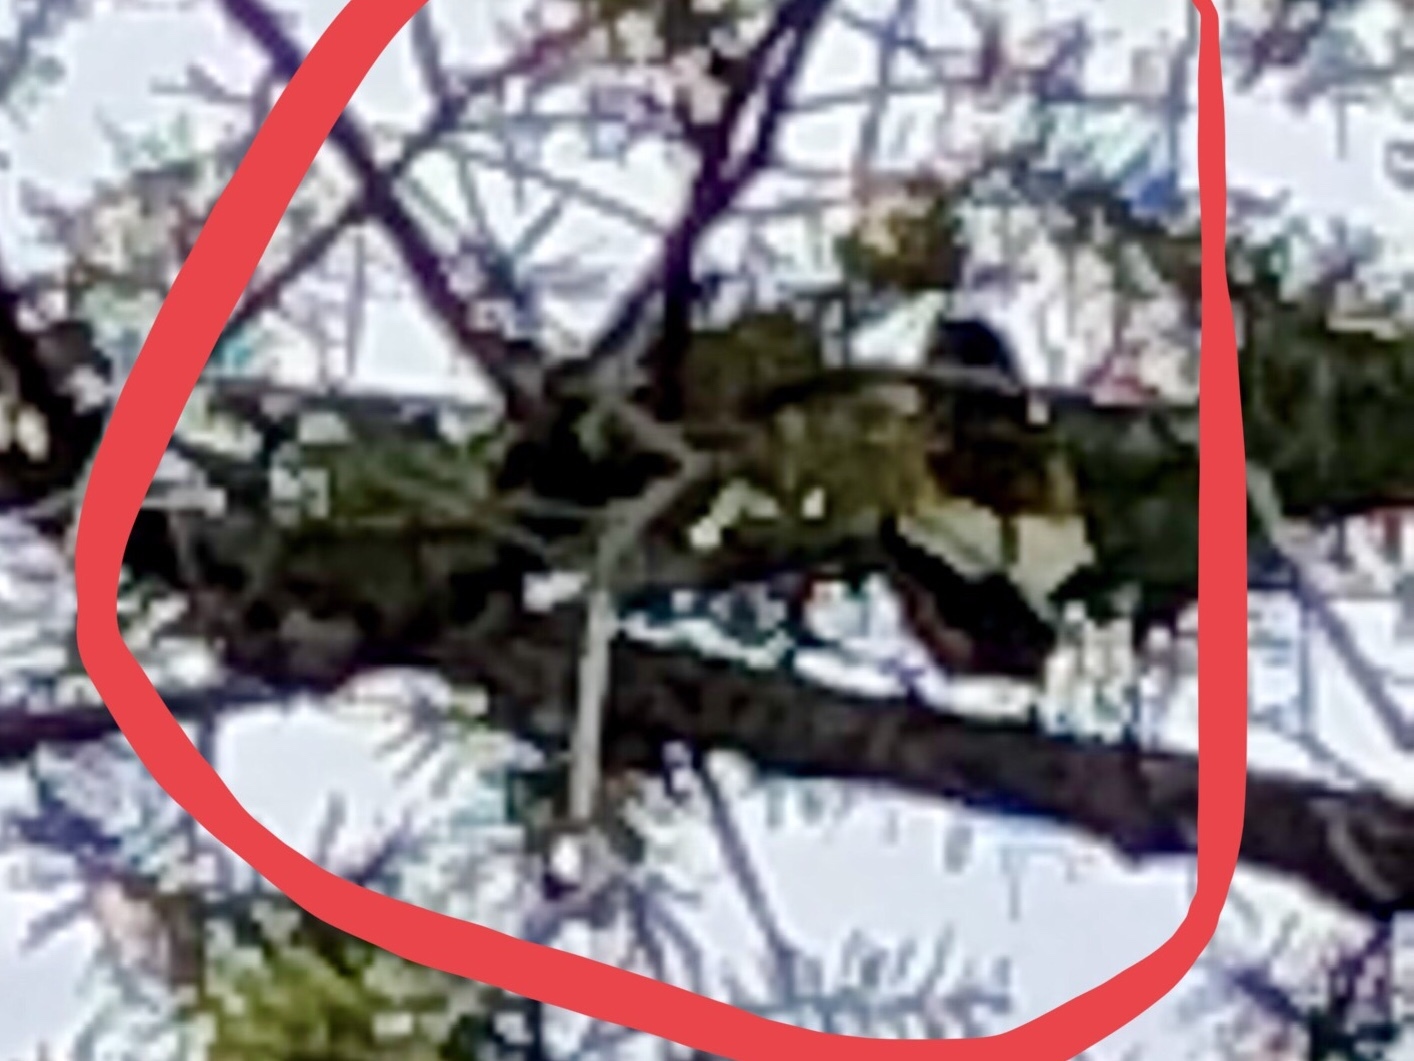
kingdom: Animalia
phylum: Chordata
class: Aves
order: Passeriformes
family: Fringillidae
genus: Hesperiphona
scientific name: Hesperiphona vespertina
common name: Evening grosbeak
